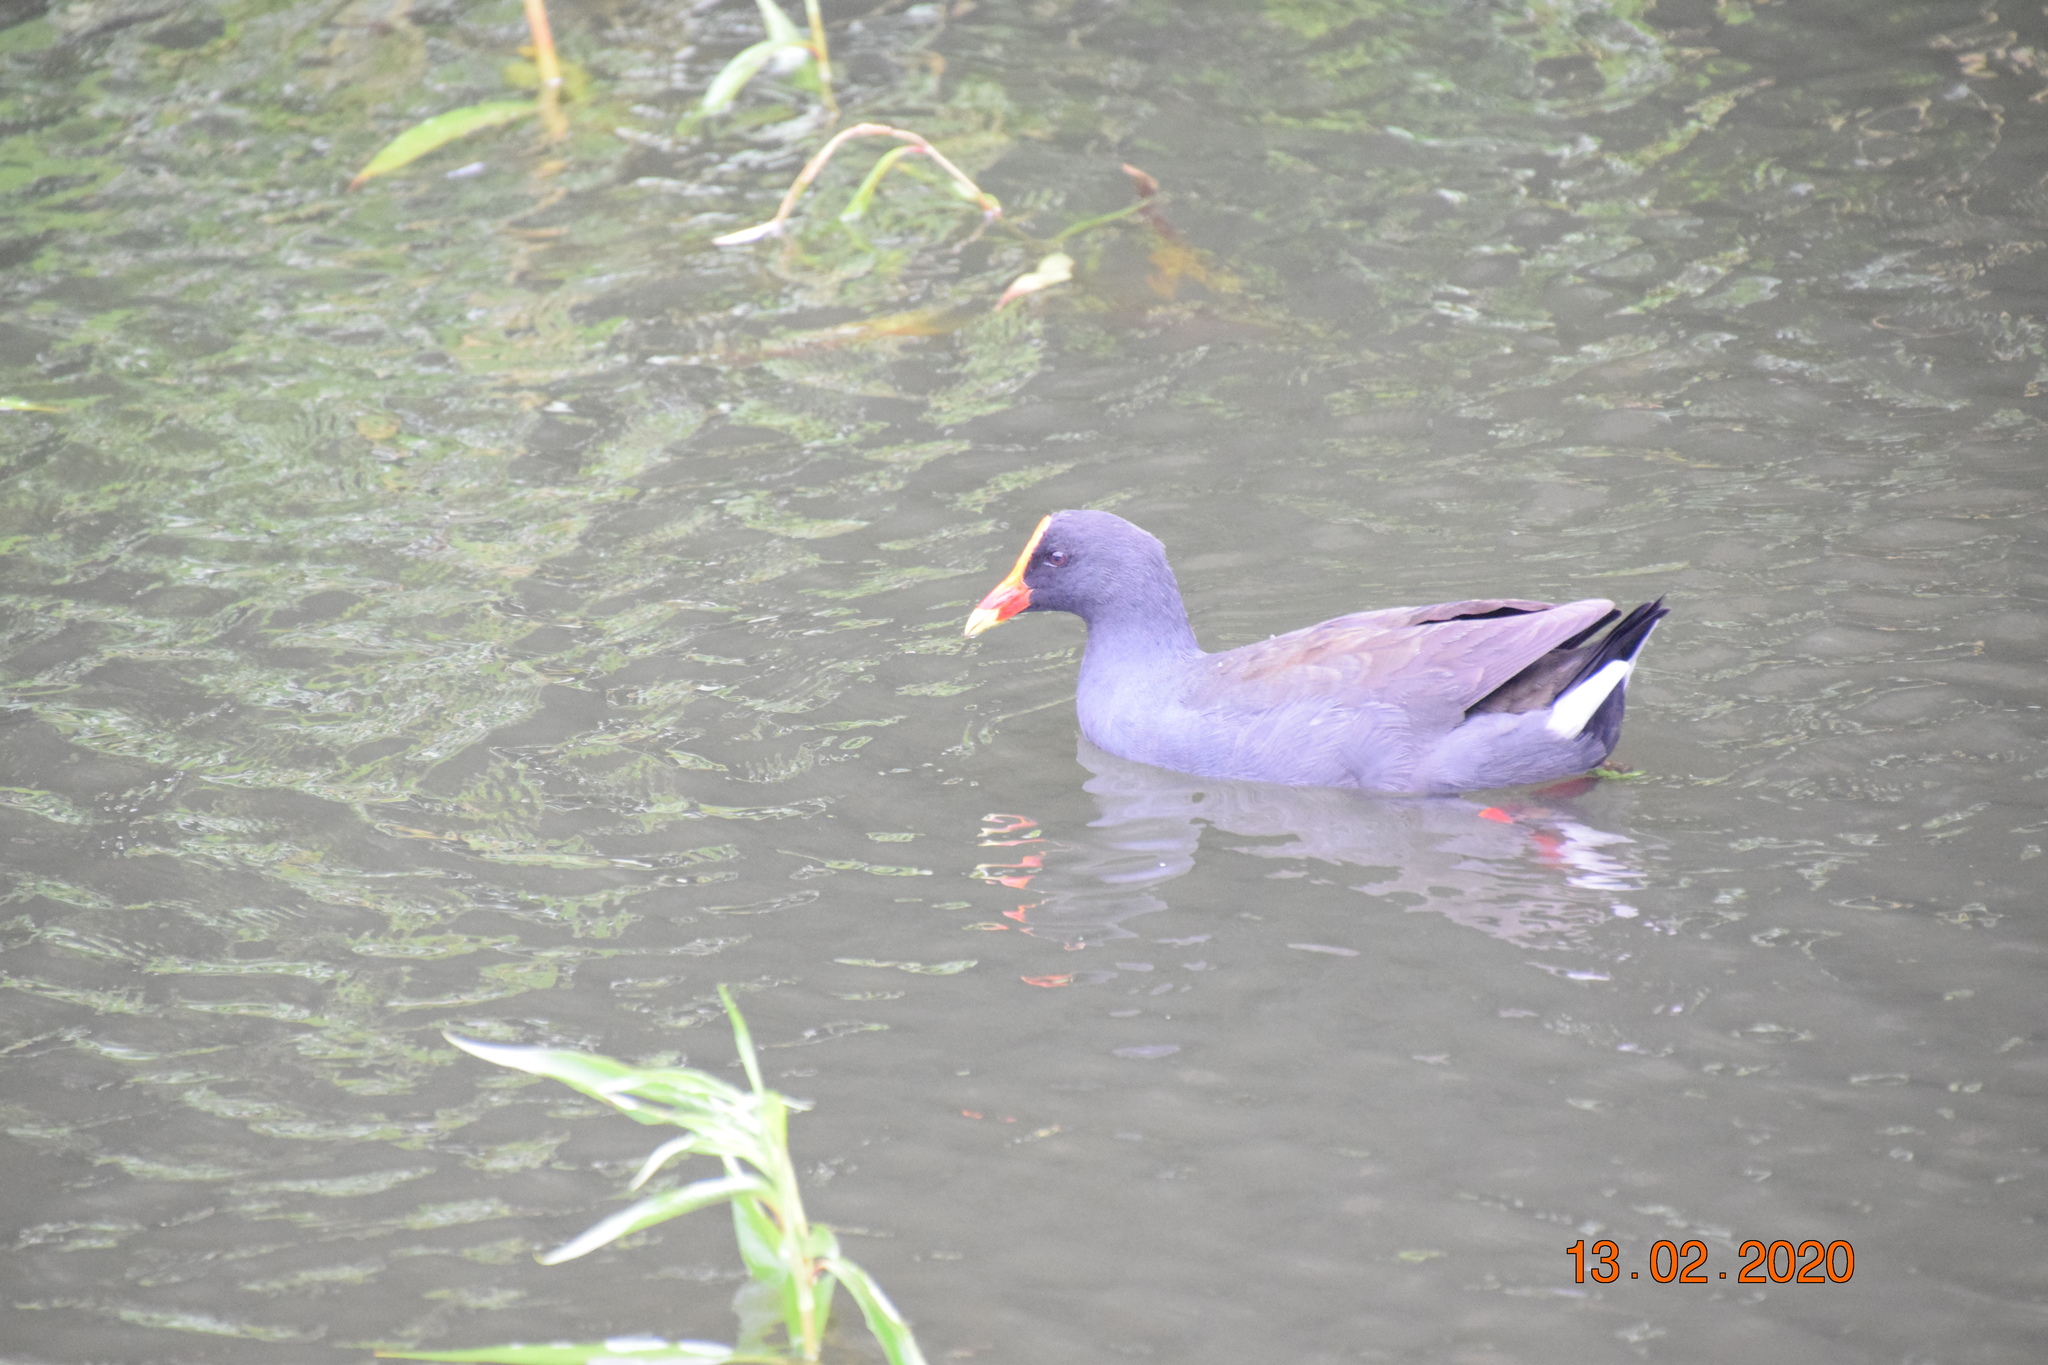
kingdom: Animalia
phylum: Chordata
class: Aves
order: Gruiformes
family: Rallidae
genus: Gallinula
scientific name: Gallinula tenebrosa
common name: Dusky moorhen
